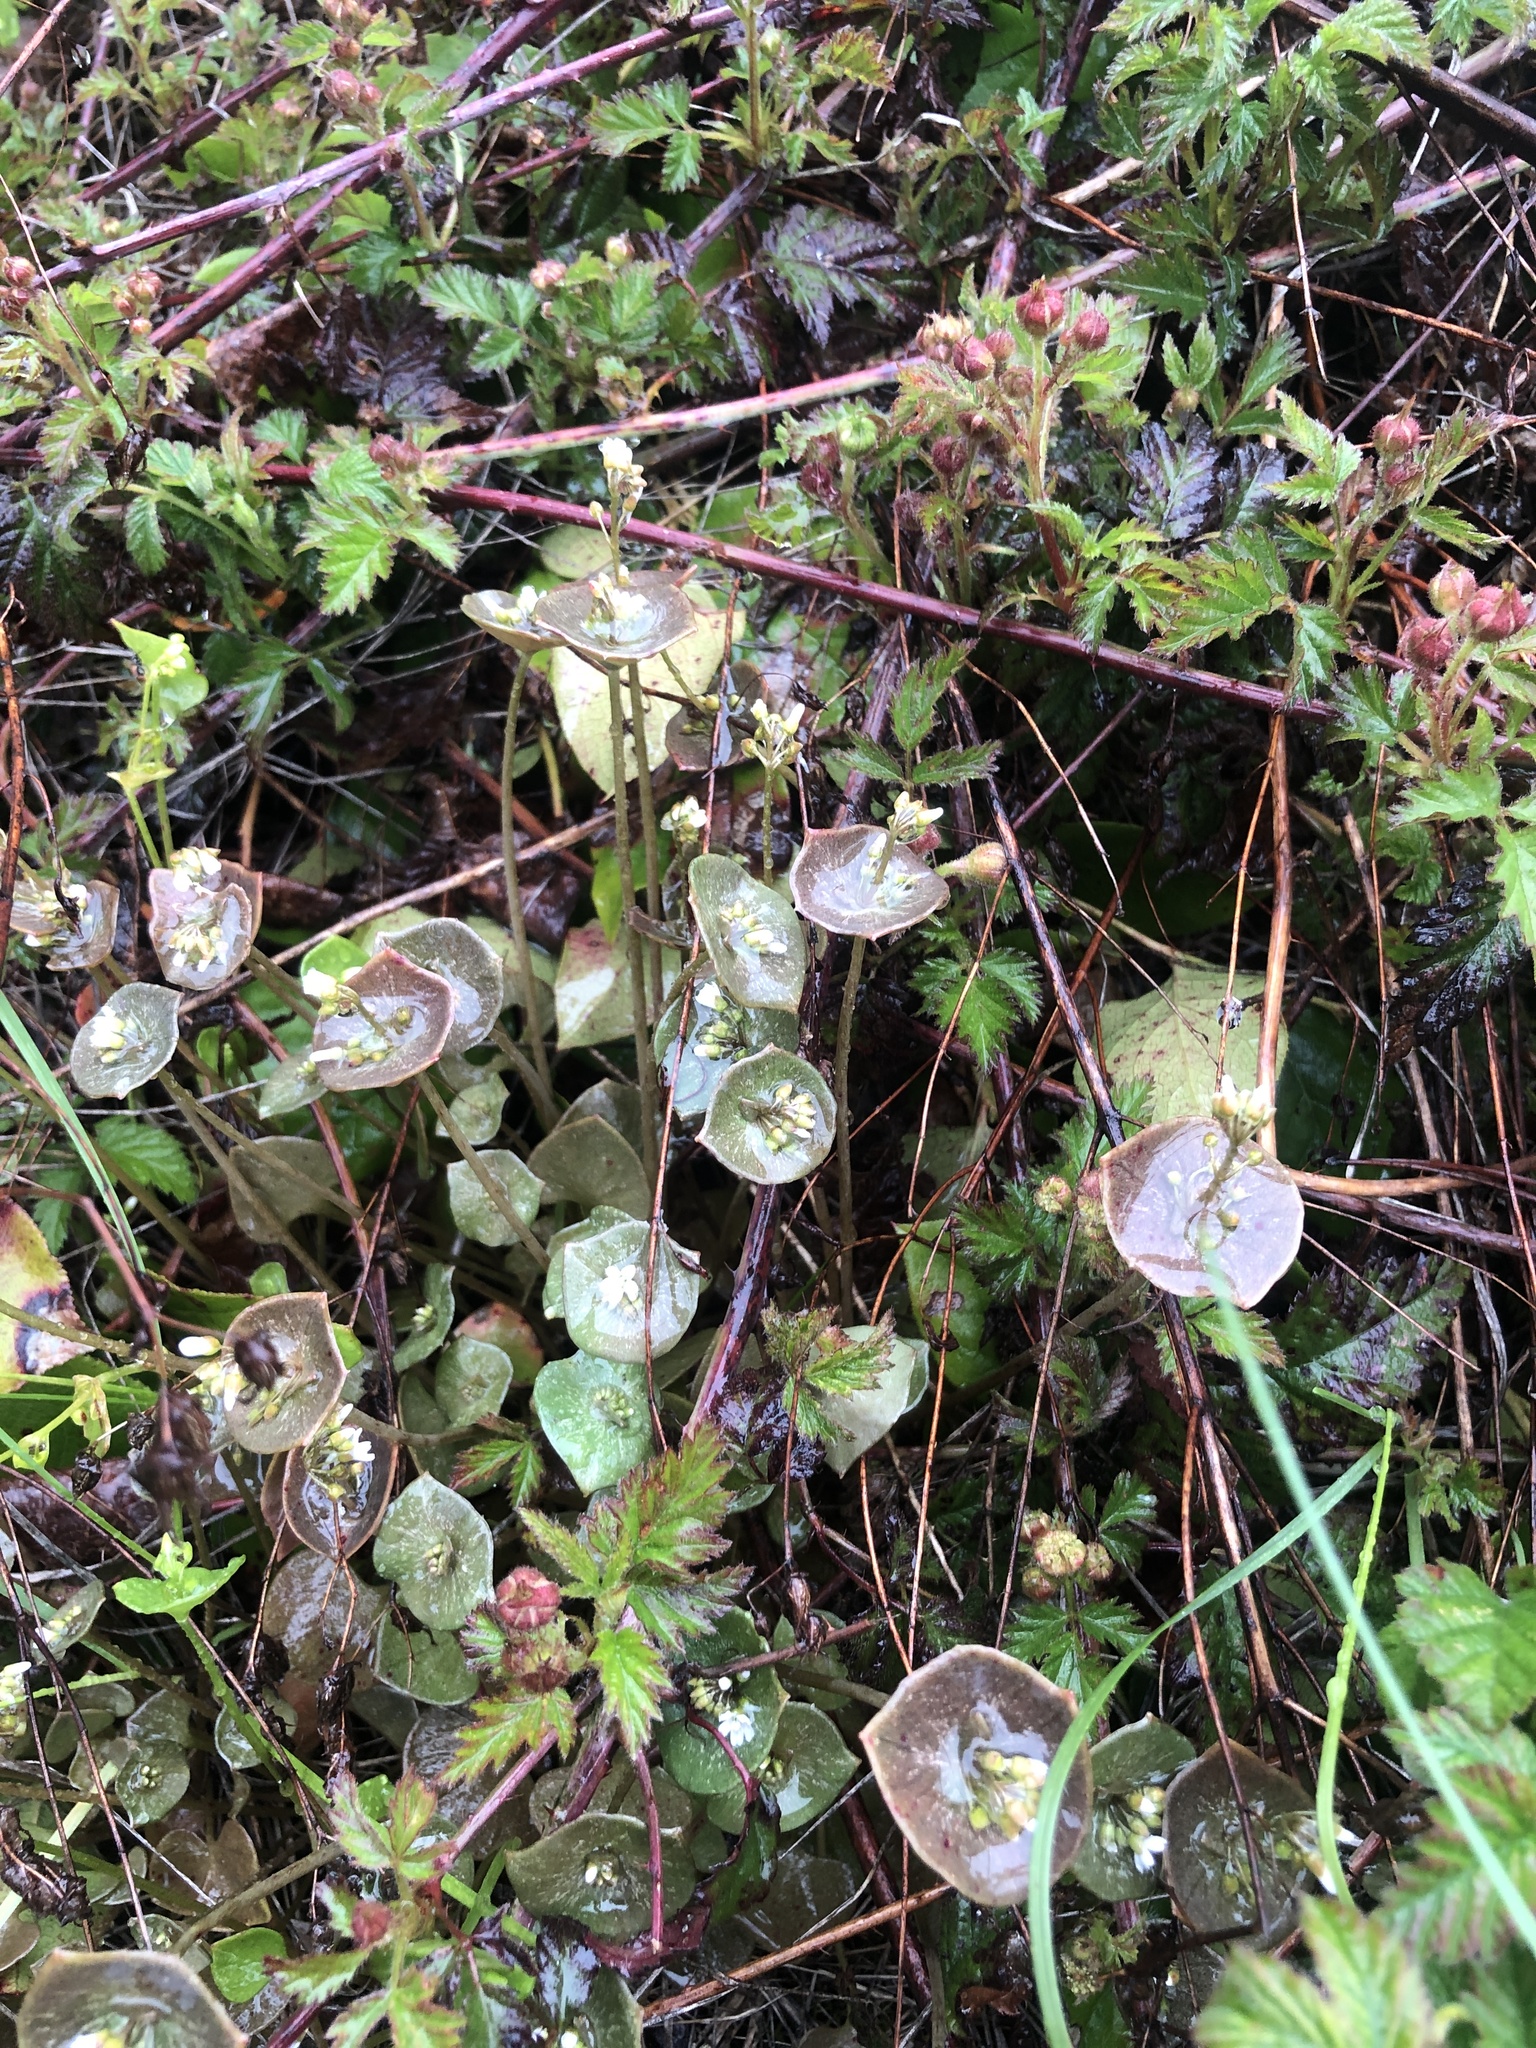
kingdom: Plantae
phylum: Tracheophyta
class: Magnoliopsida
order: Caryophyllales
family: Montiaceae
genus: Claytonia
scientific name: Claytonia perfoliata
